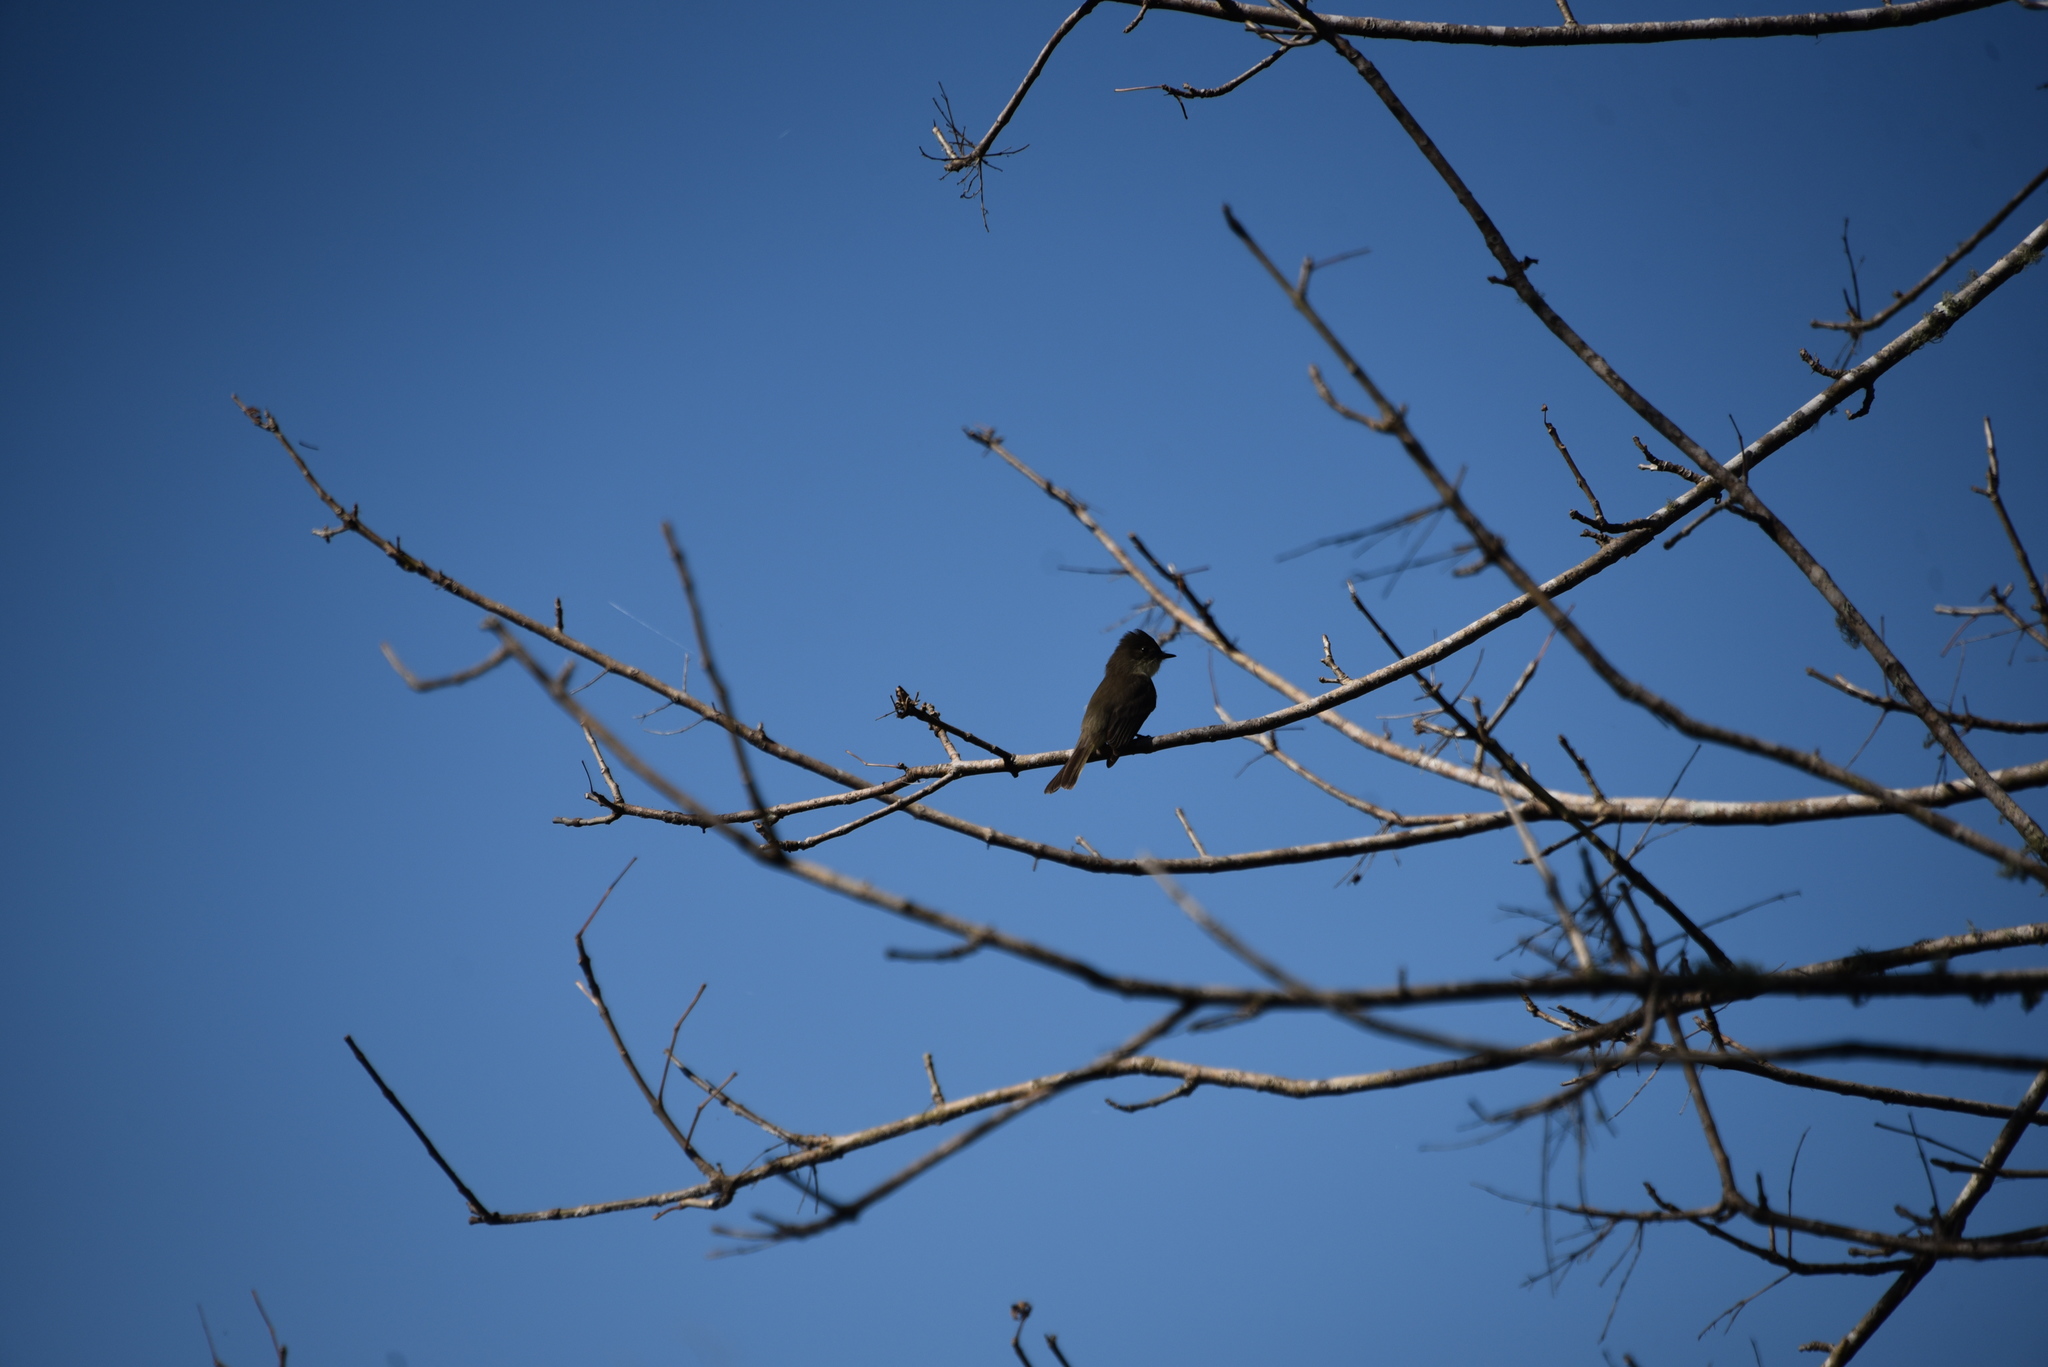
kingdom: Animalia
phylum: Chordata
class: Aves
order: Passeriformes
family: Tyrannidae
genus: Sayornis
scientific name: Sayornis phoebe
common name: Eastern phoebe
